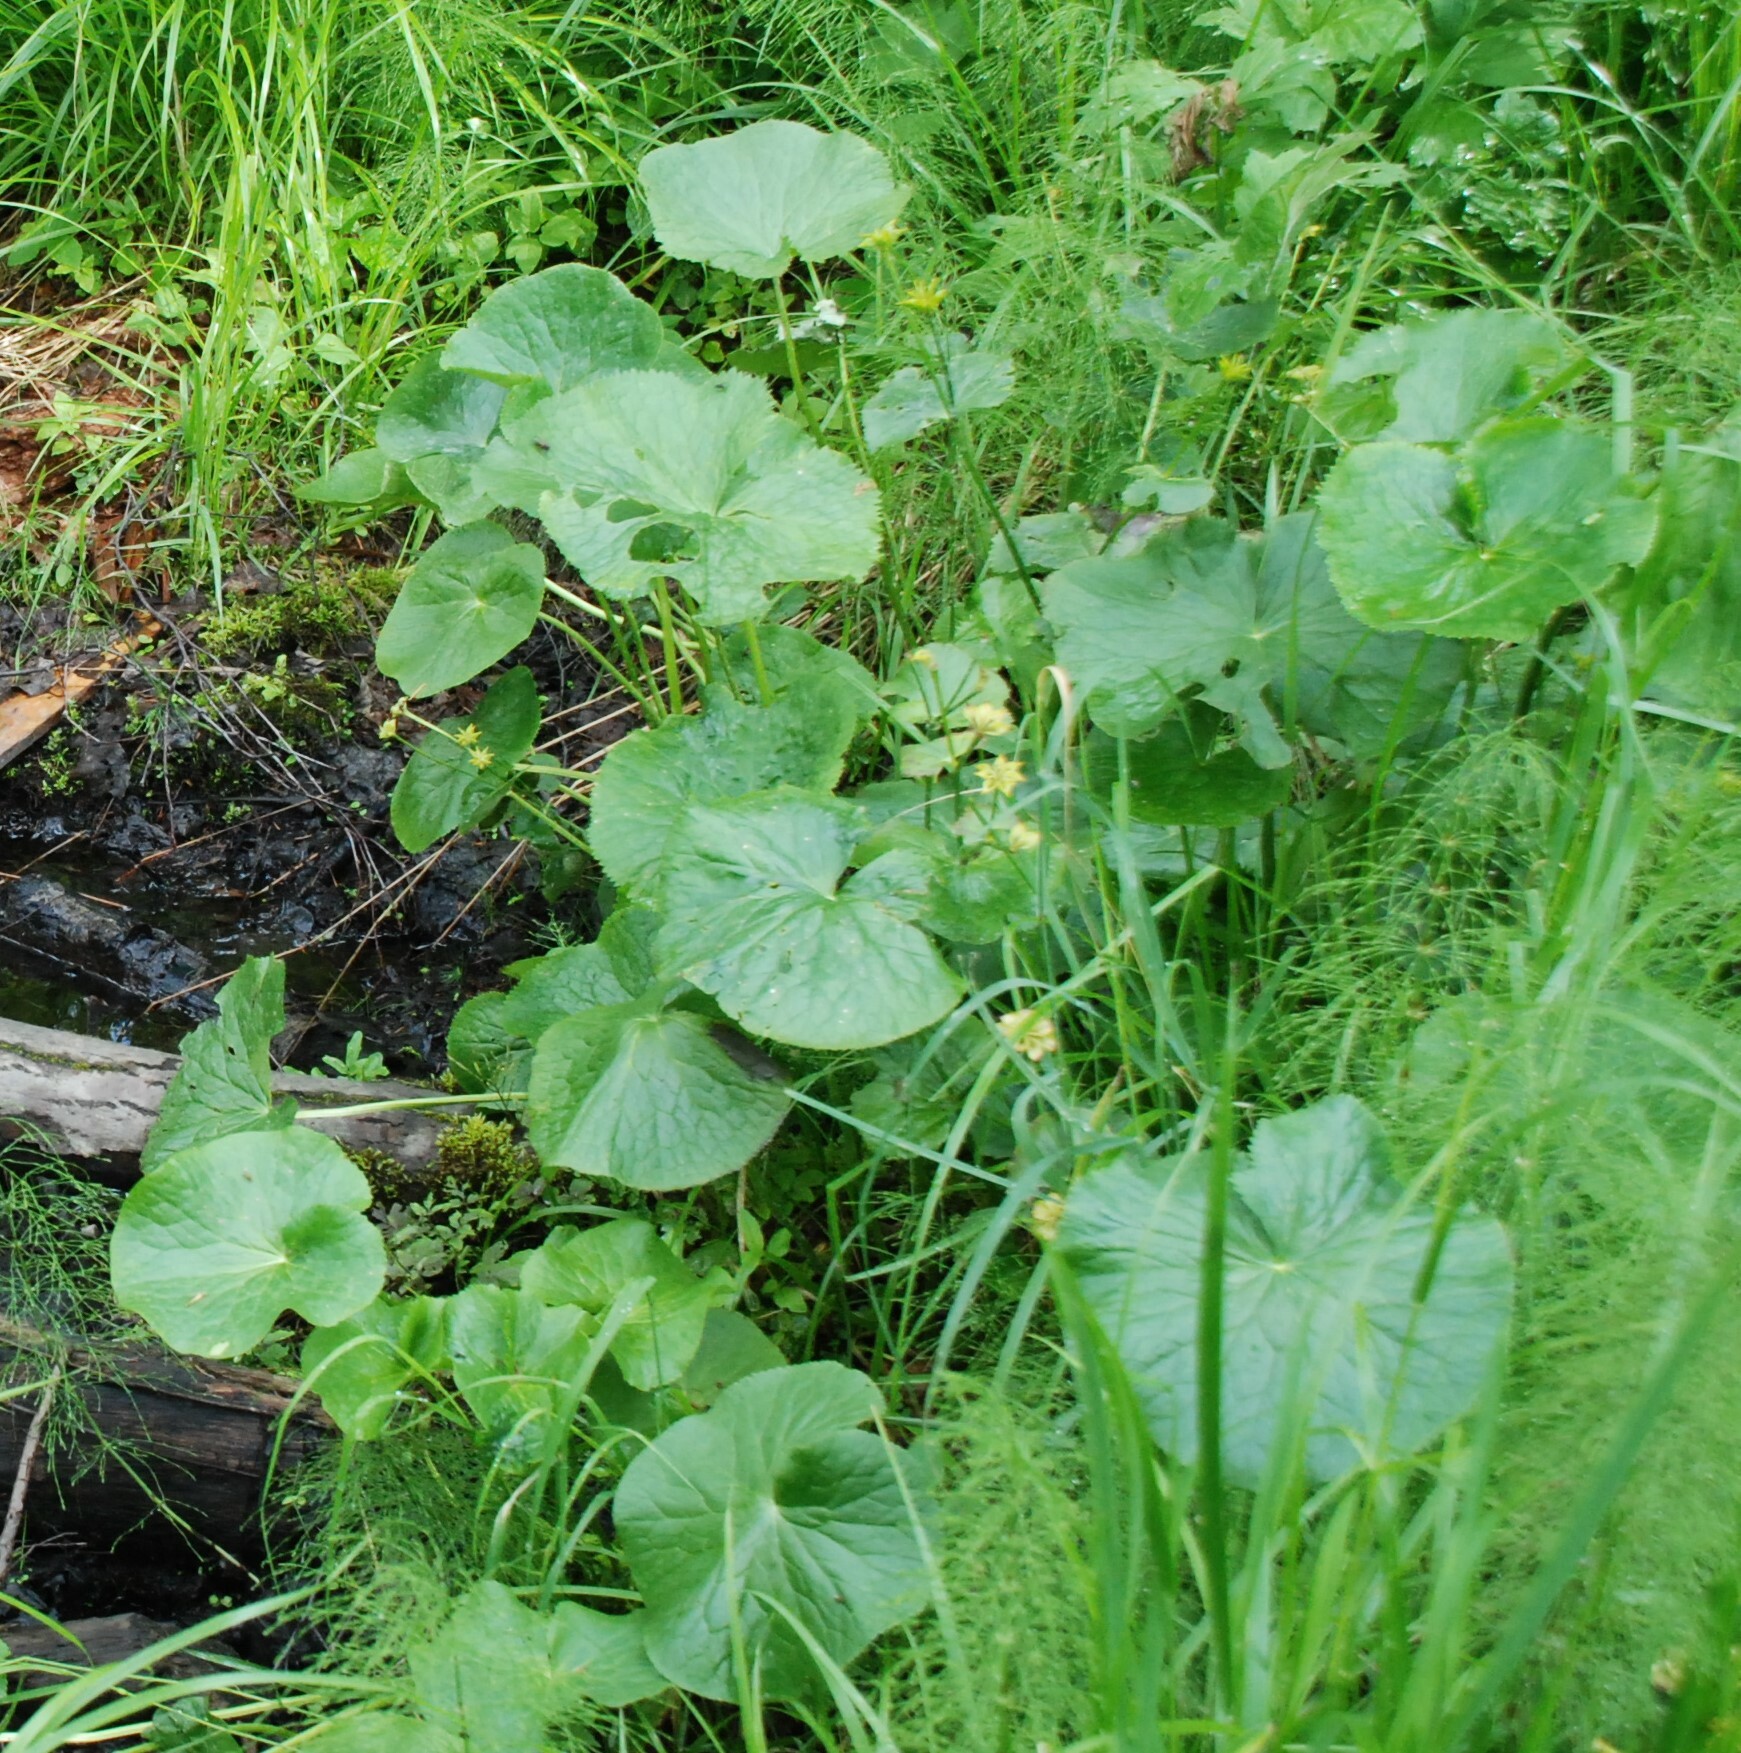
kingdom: Plantae
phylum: Tracheophyta
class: Magnoliopsida
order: Ranunculales
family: Ranunculaceae
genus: Caltha
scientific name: Caltha palustris
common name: Marsh marigold
